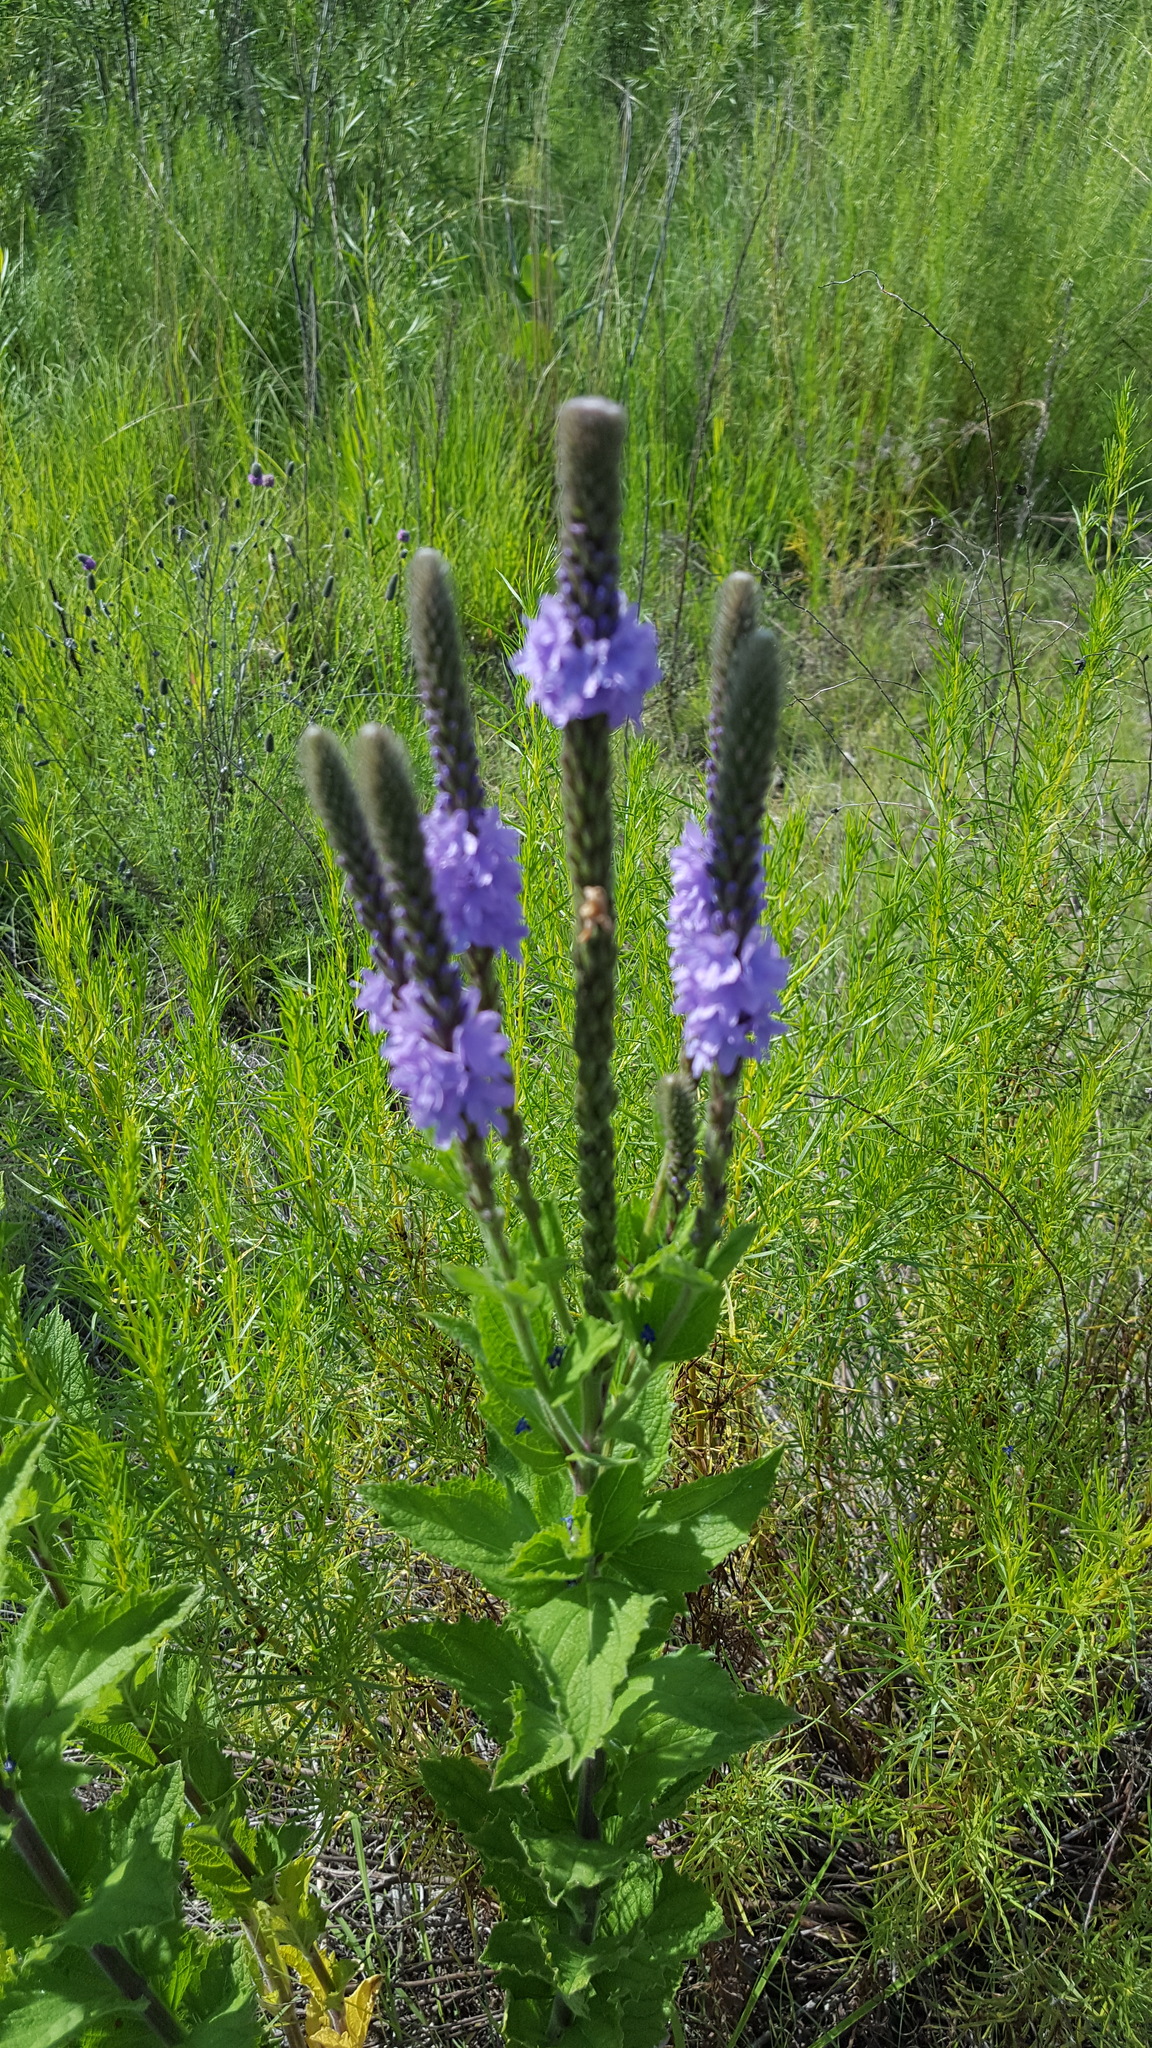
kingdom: Plantae
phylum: Tracheophyta
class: Magnoliopsida
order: Lamiales
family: Verbenaceae
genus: Verbena
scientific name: Verbena stricta
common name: Hoary vervain
